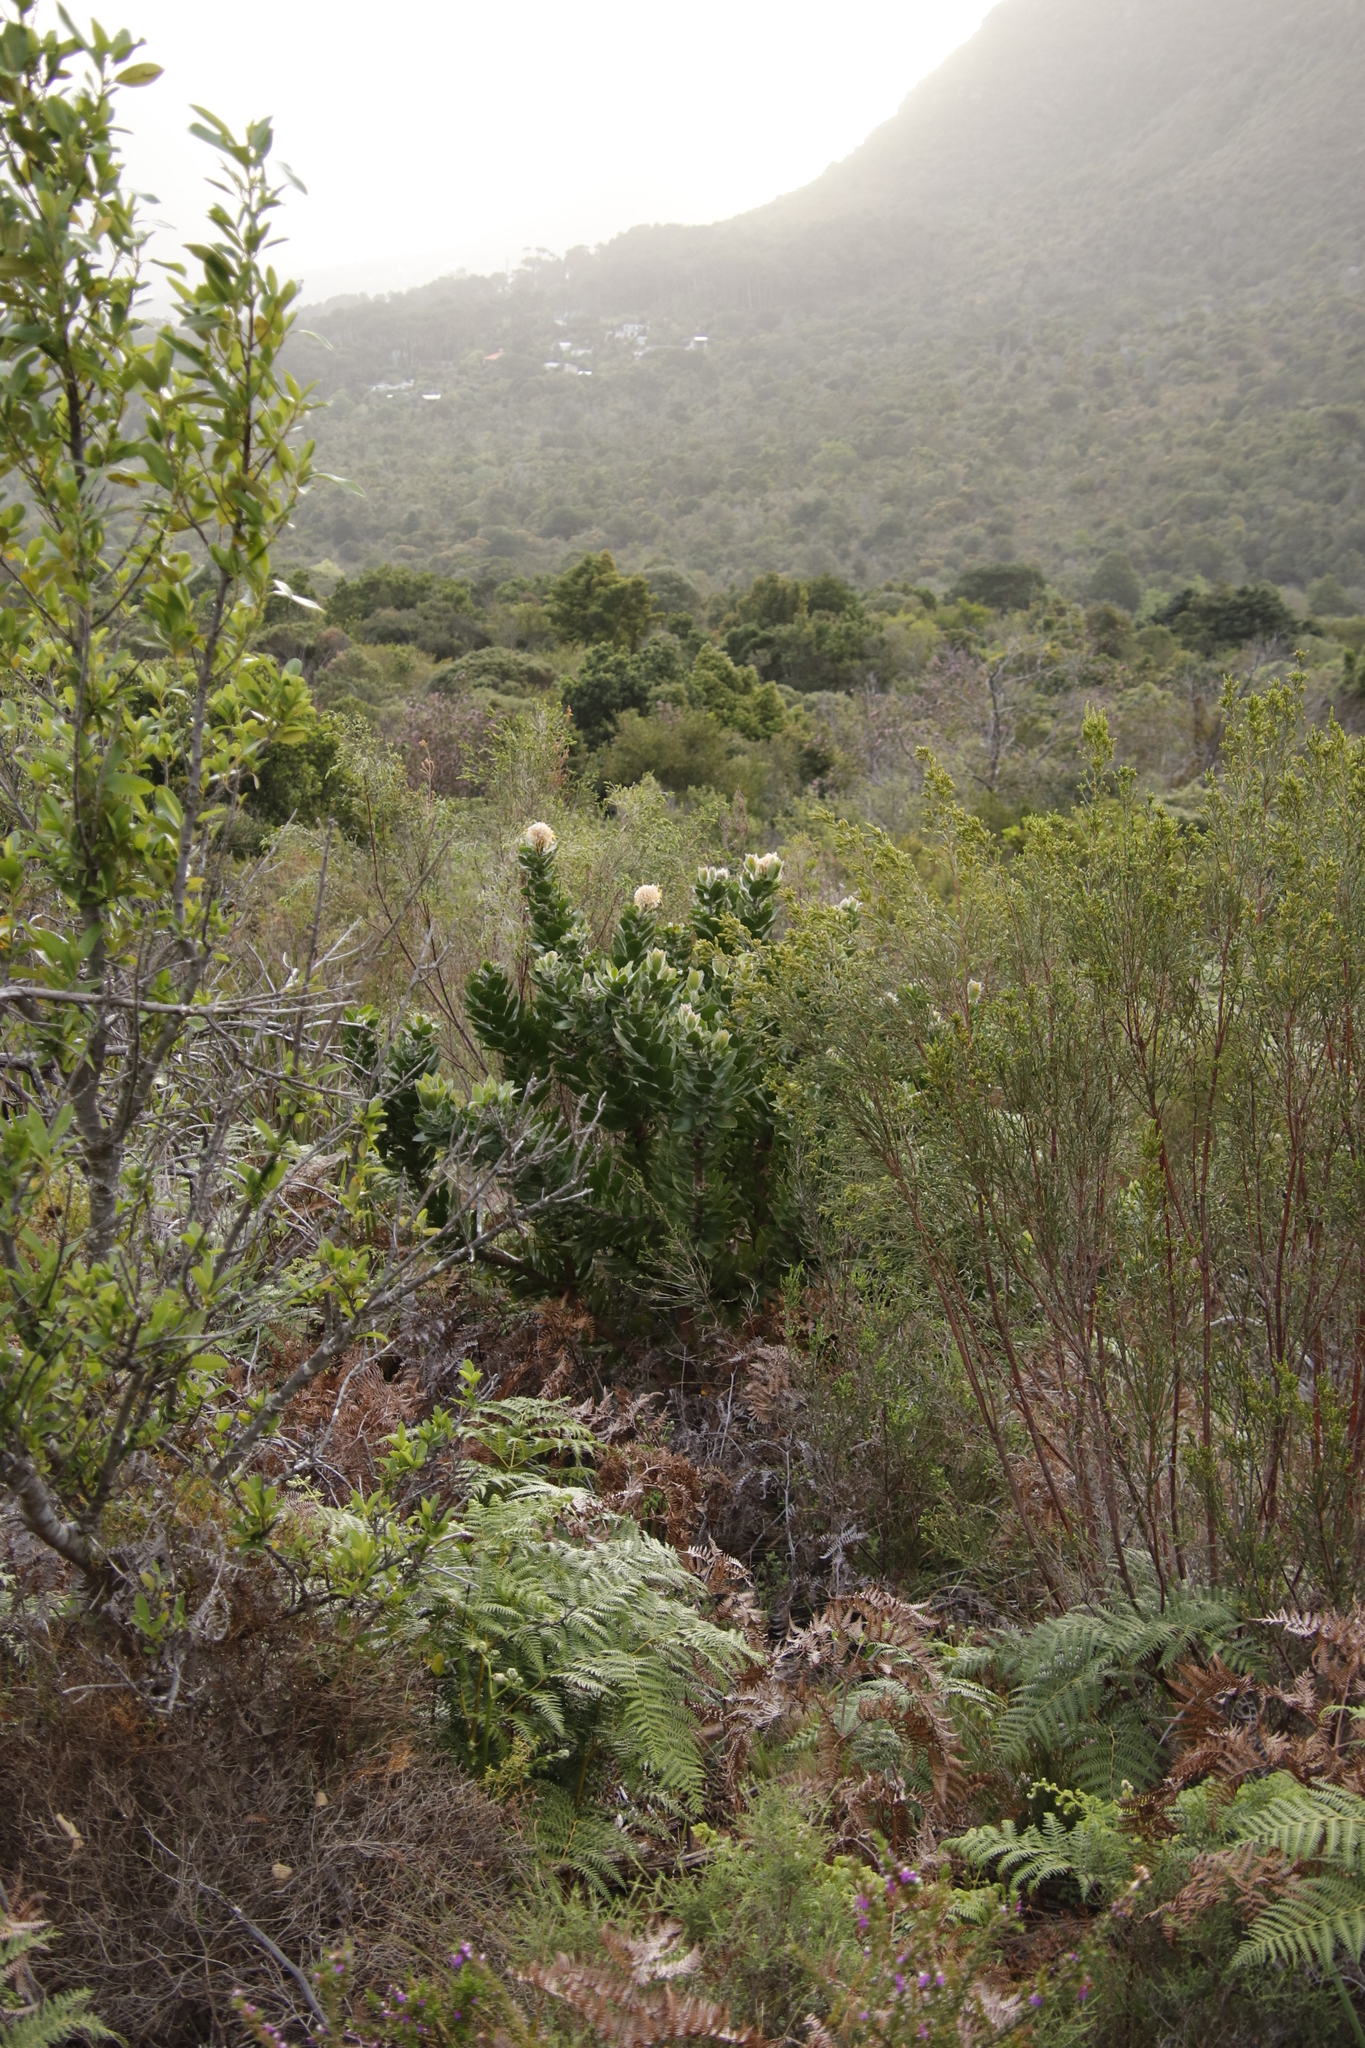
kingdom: Plantae
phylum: Tracheophyta
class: Magnoliopsida
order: Proteales
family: Proteaceae
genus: Leucospermum
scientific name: Leucospermum conocarpodendron
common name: Tree pincushion
